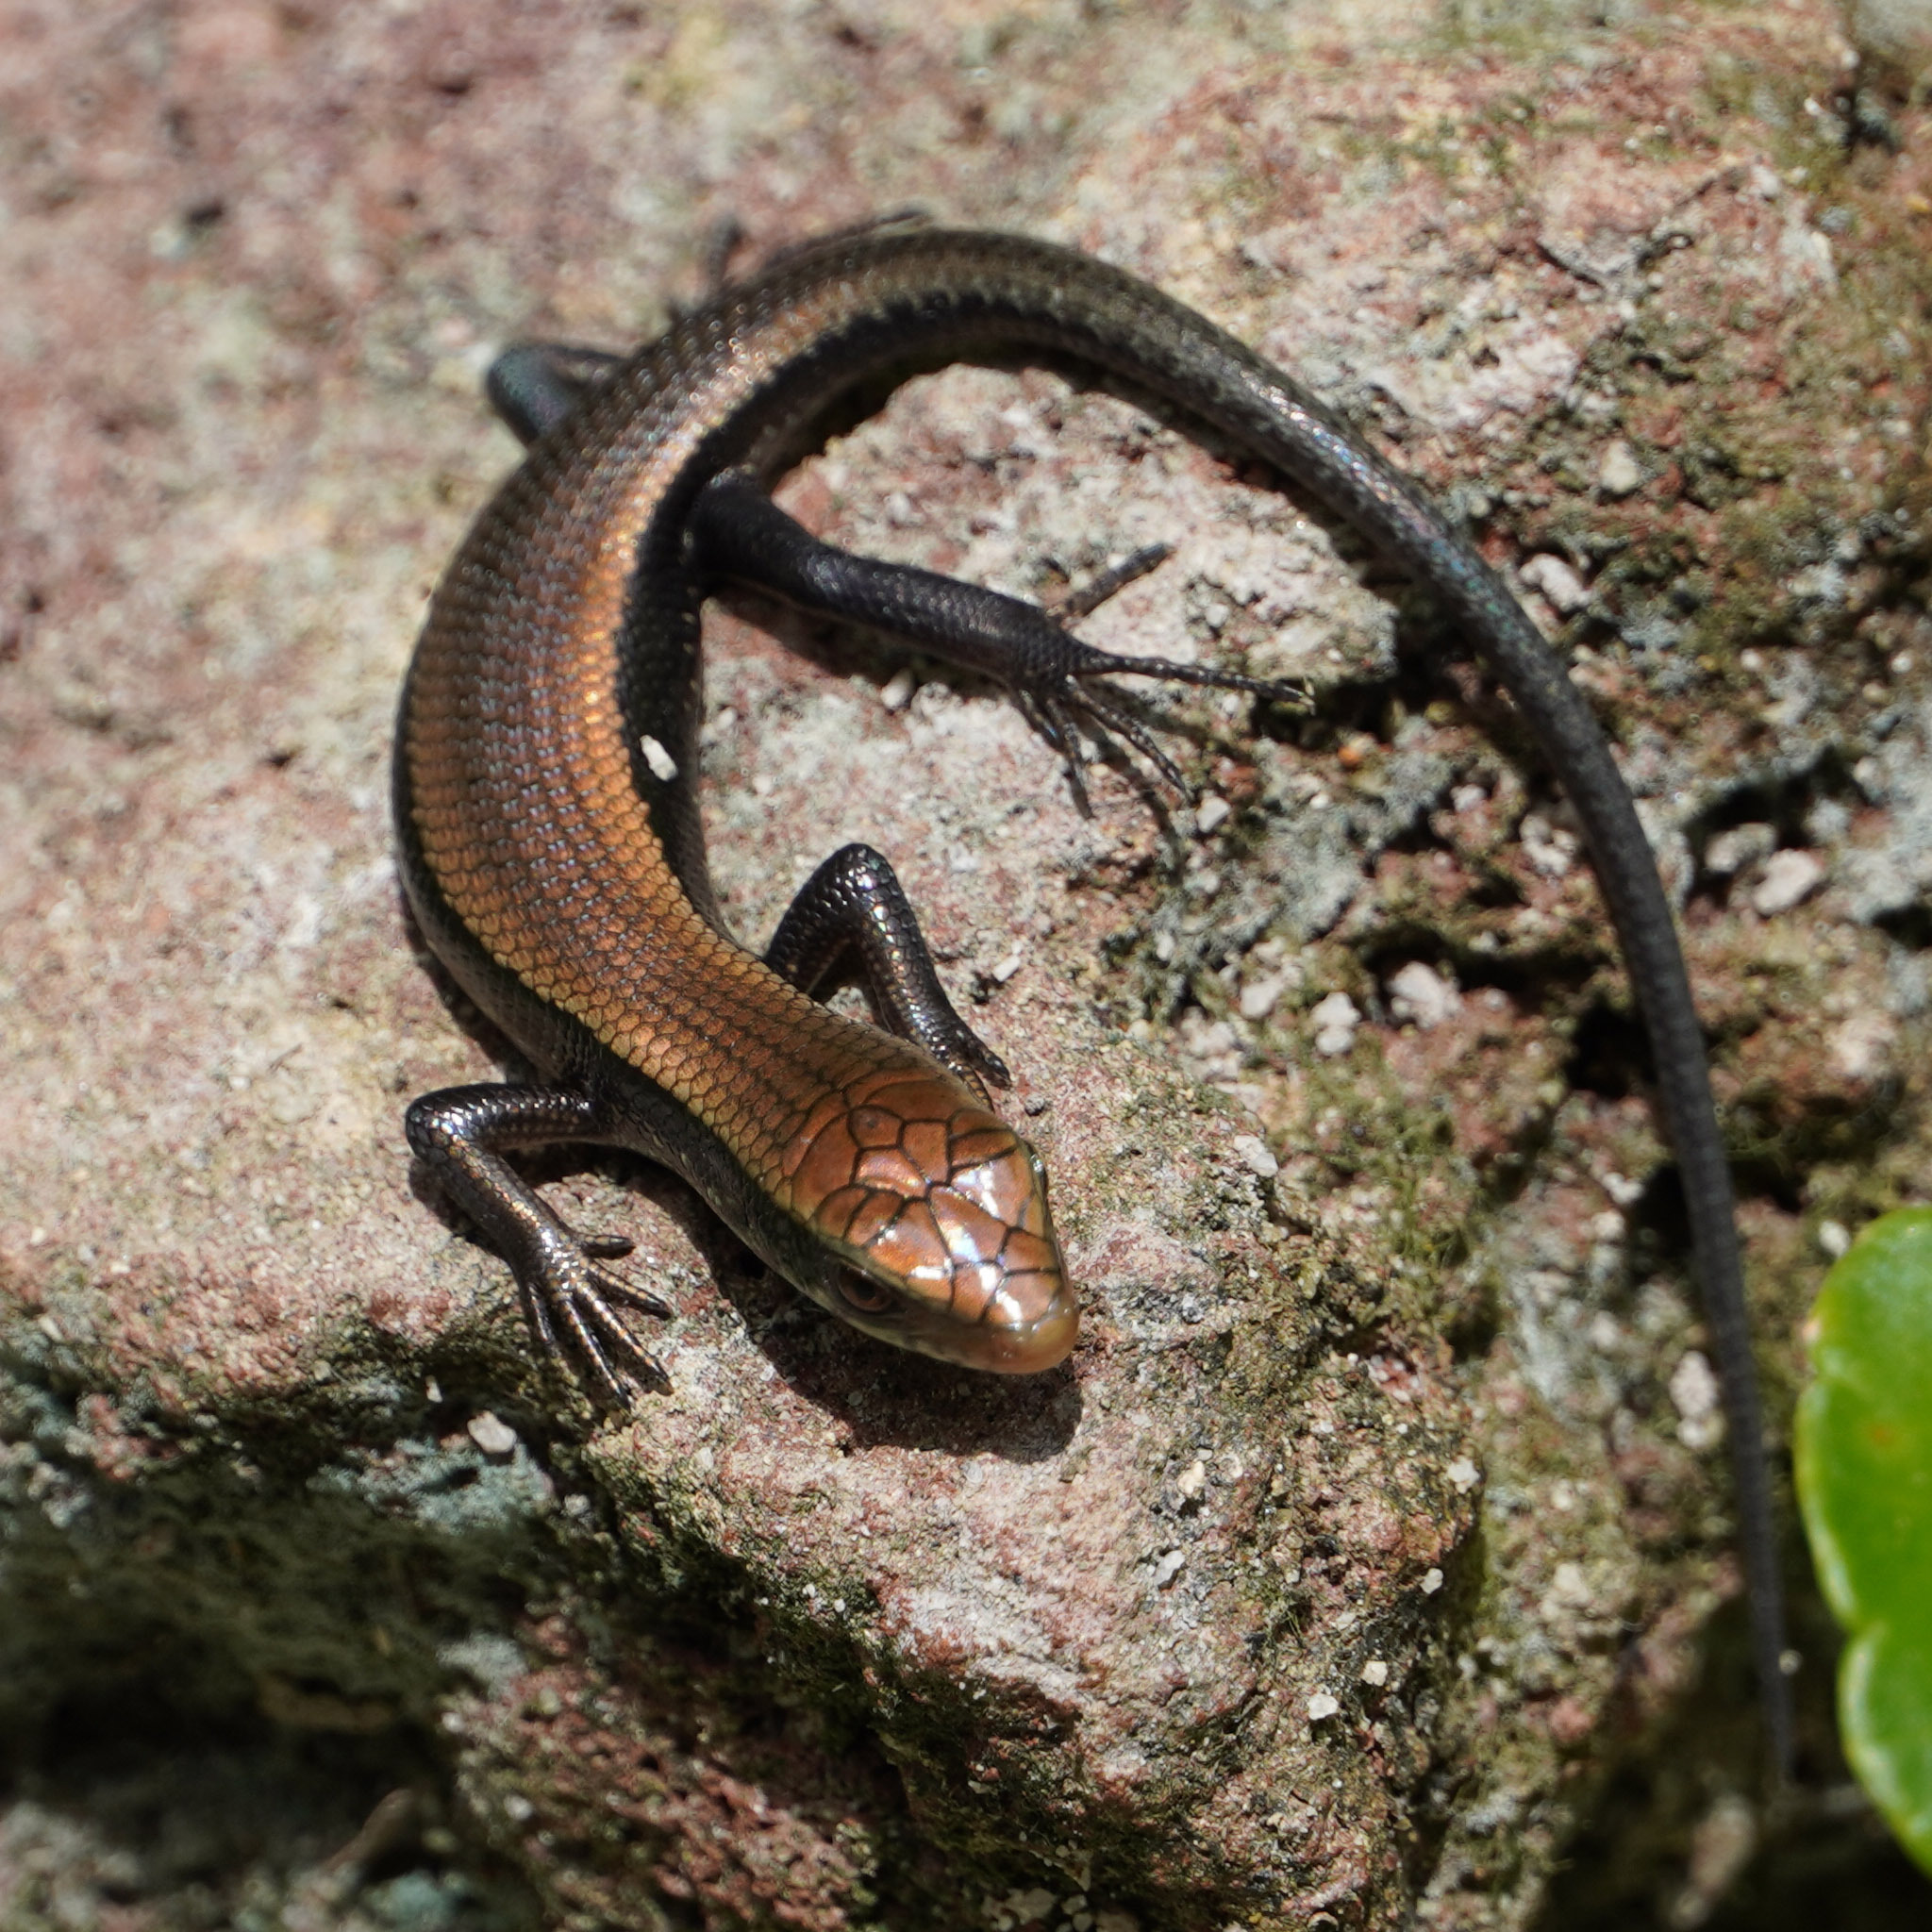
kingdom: Animalia
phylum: Chordata
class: Squamata
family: Scincidae
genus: Eutropis
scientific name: Eutropis multifasciata
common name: Common mabuya
